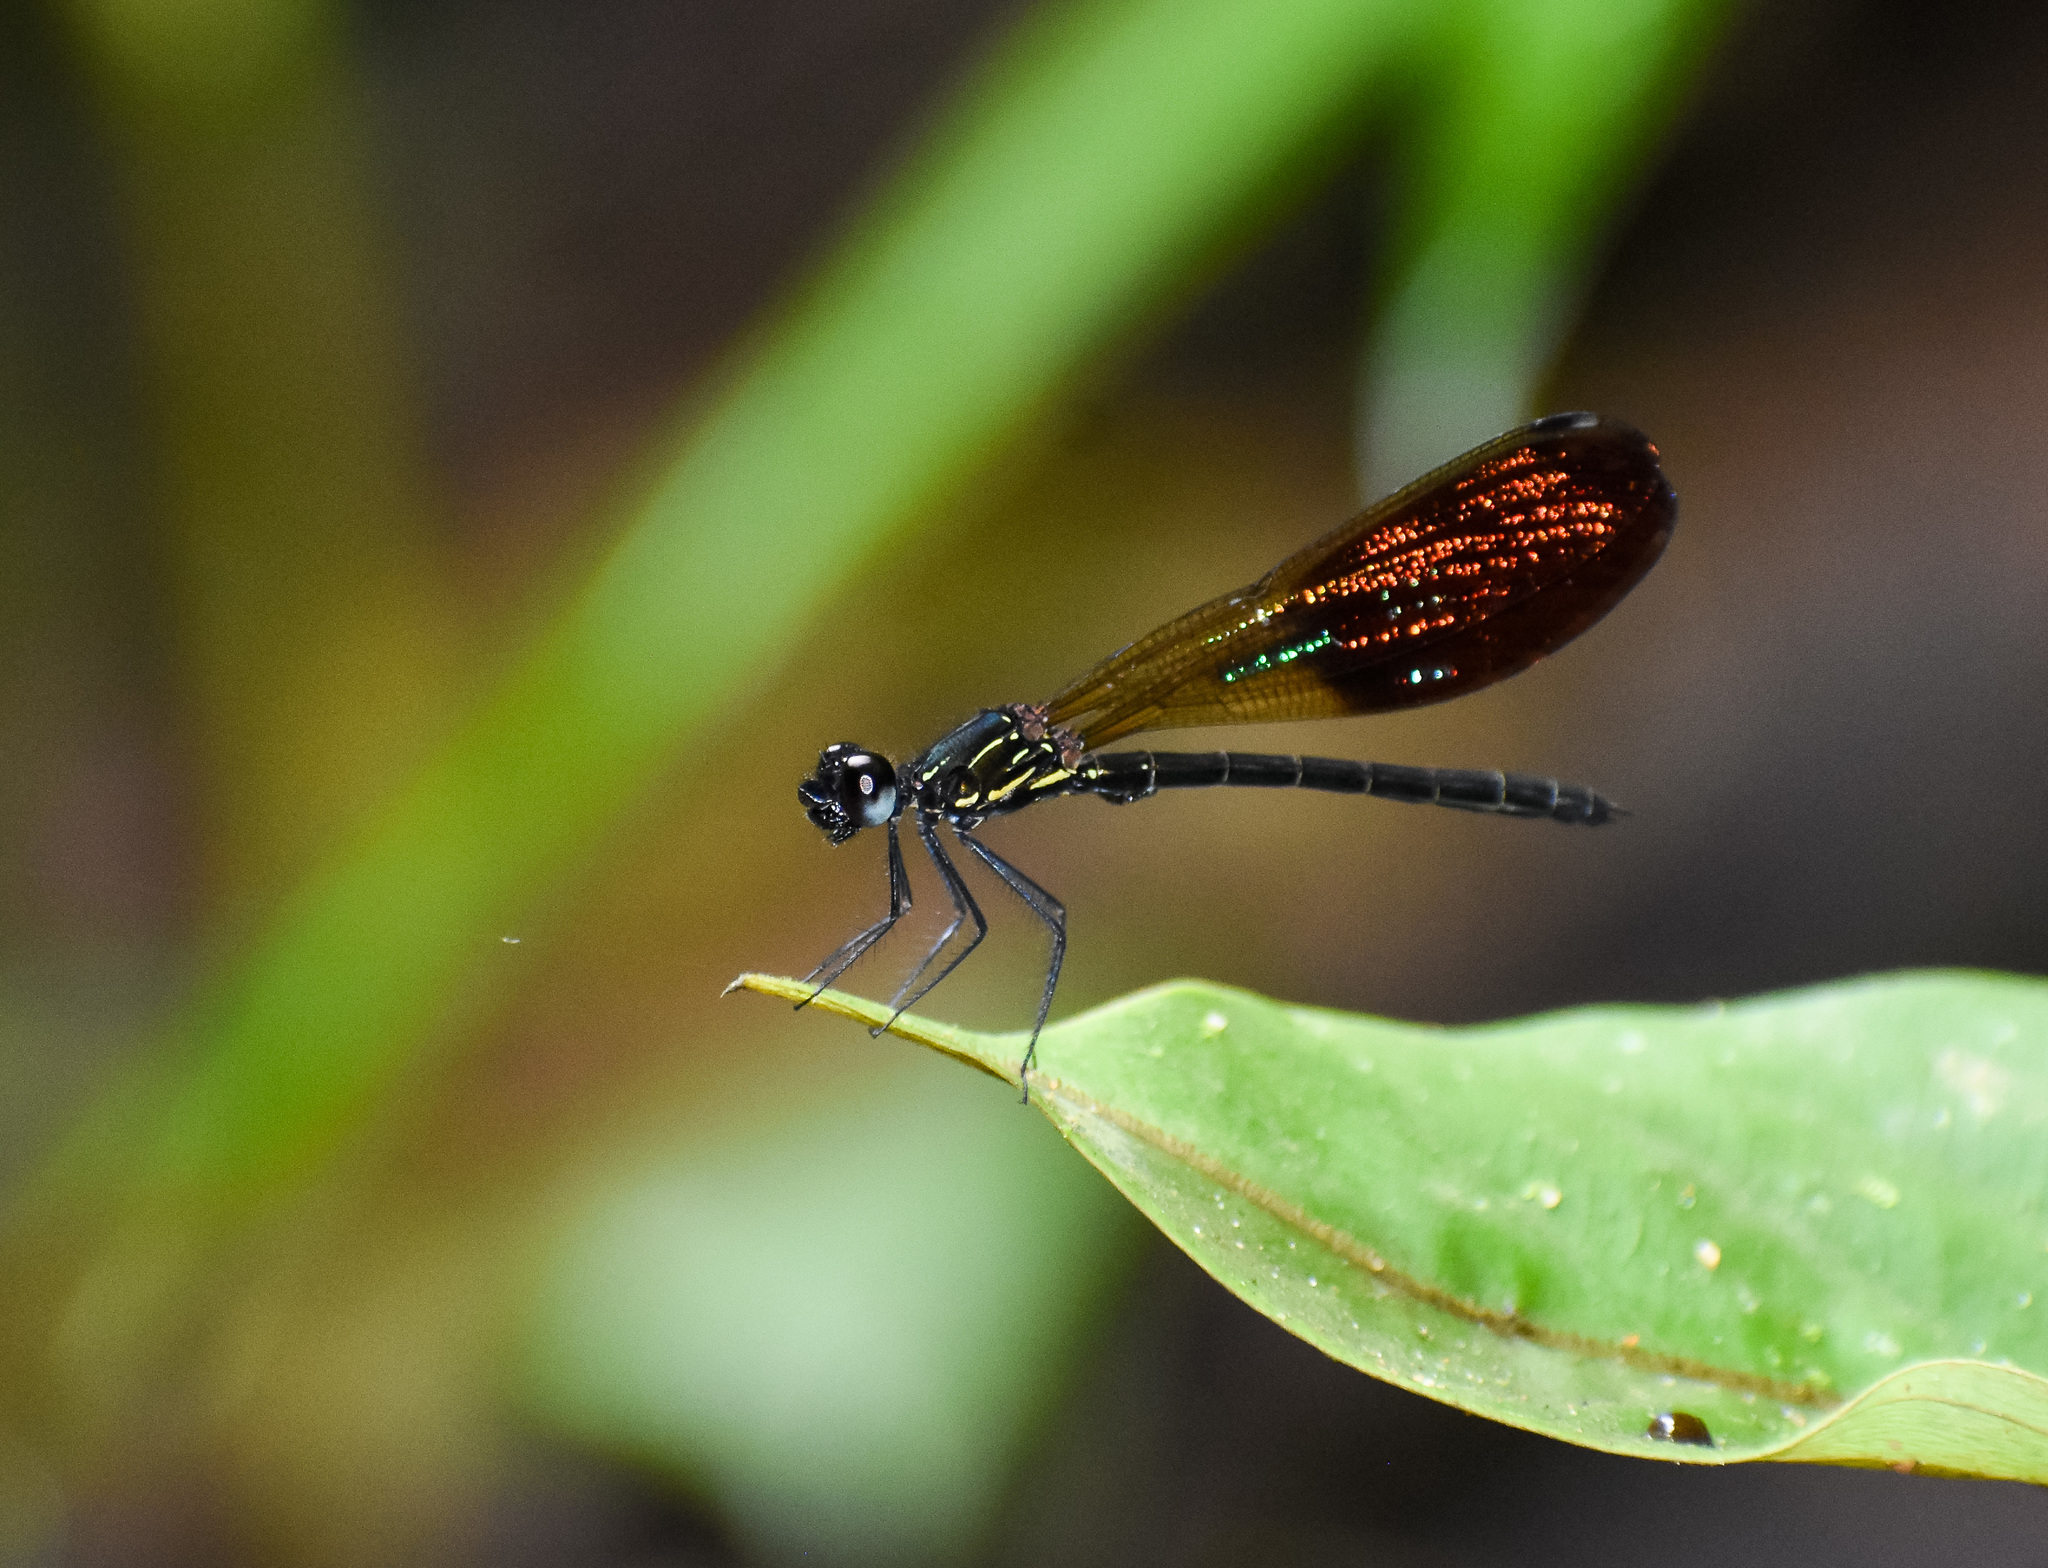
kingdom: Animalia
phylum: Arthropoda
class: Insecta
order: Odonata
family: Chlorocyphidae
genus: Rhinocypha
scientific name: Rhinocypha trimaculata
